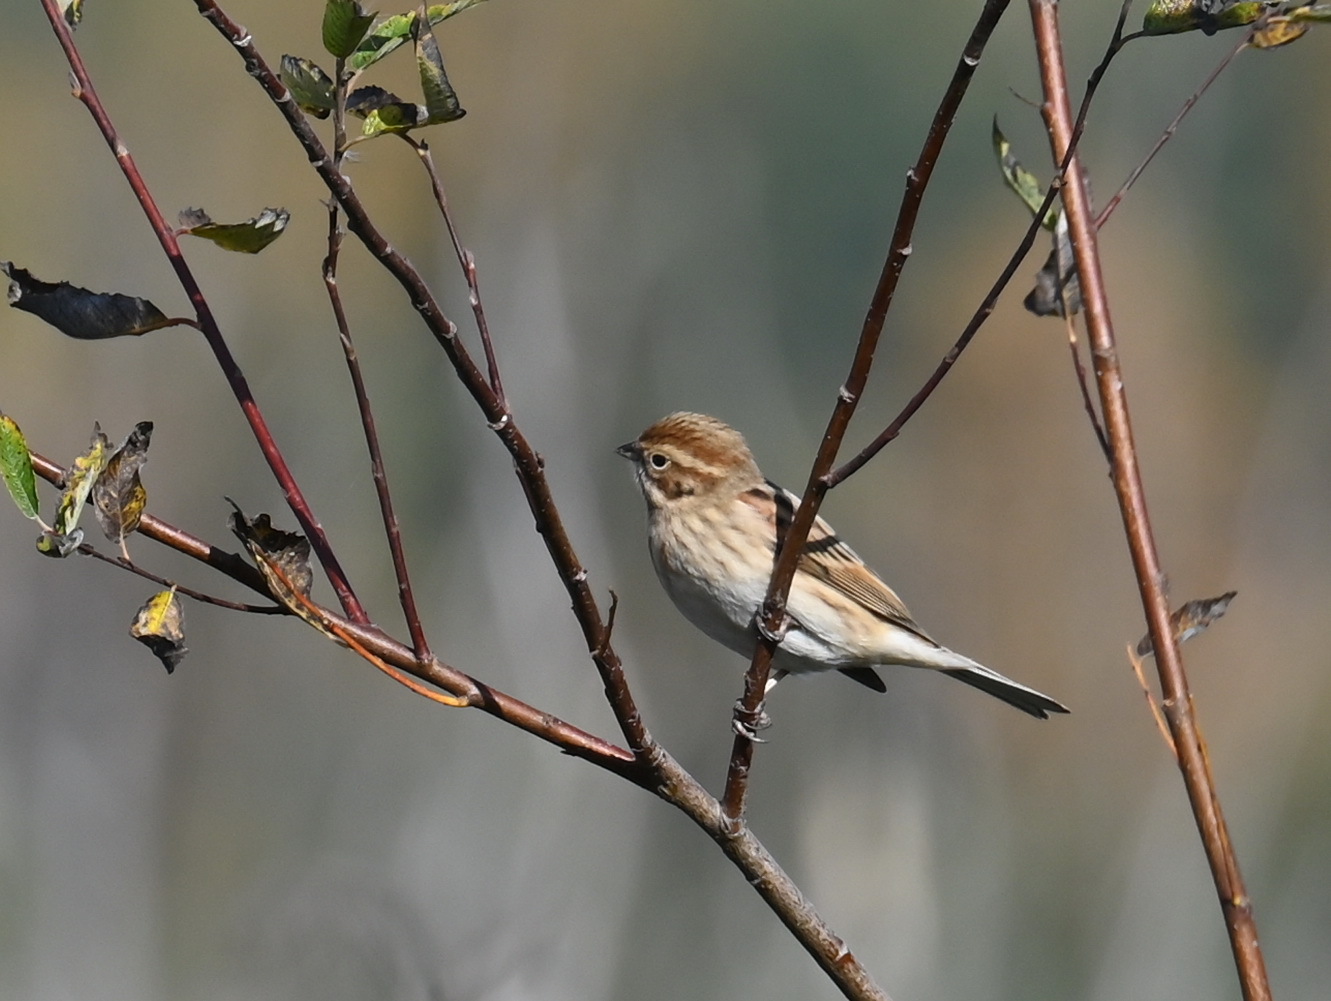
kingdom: Animalia
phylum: Chordata
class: Aves
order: Passeriformes
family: Emberizidae
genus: Emberiza
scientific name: Emberiza schoeniclus
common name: Reed bunting
